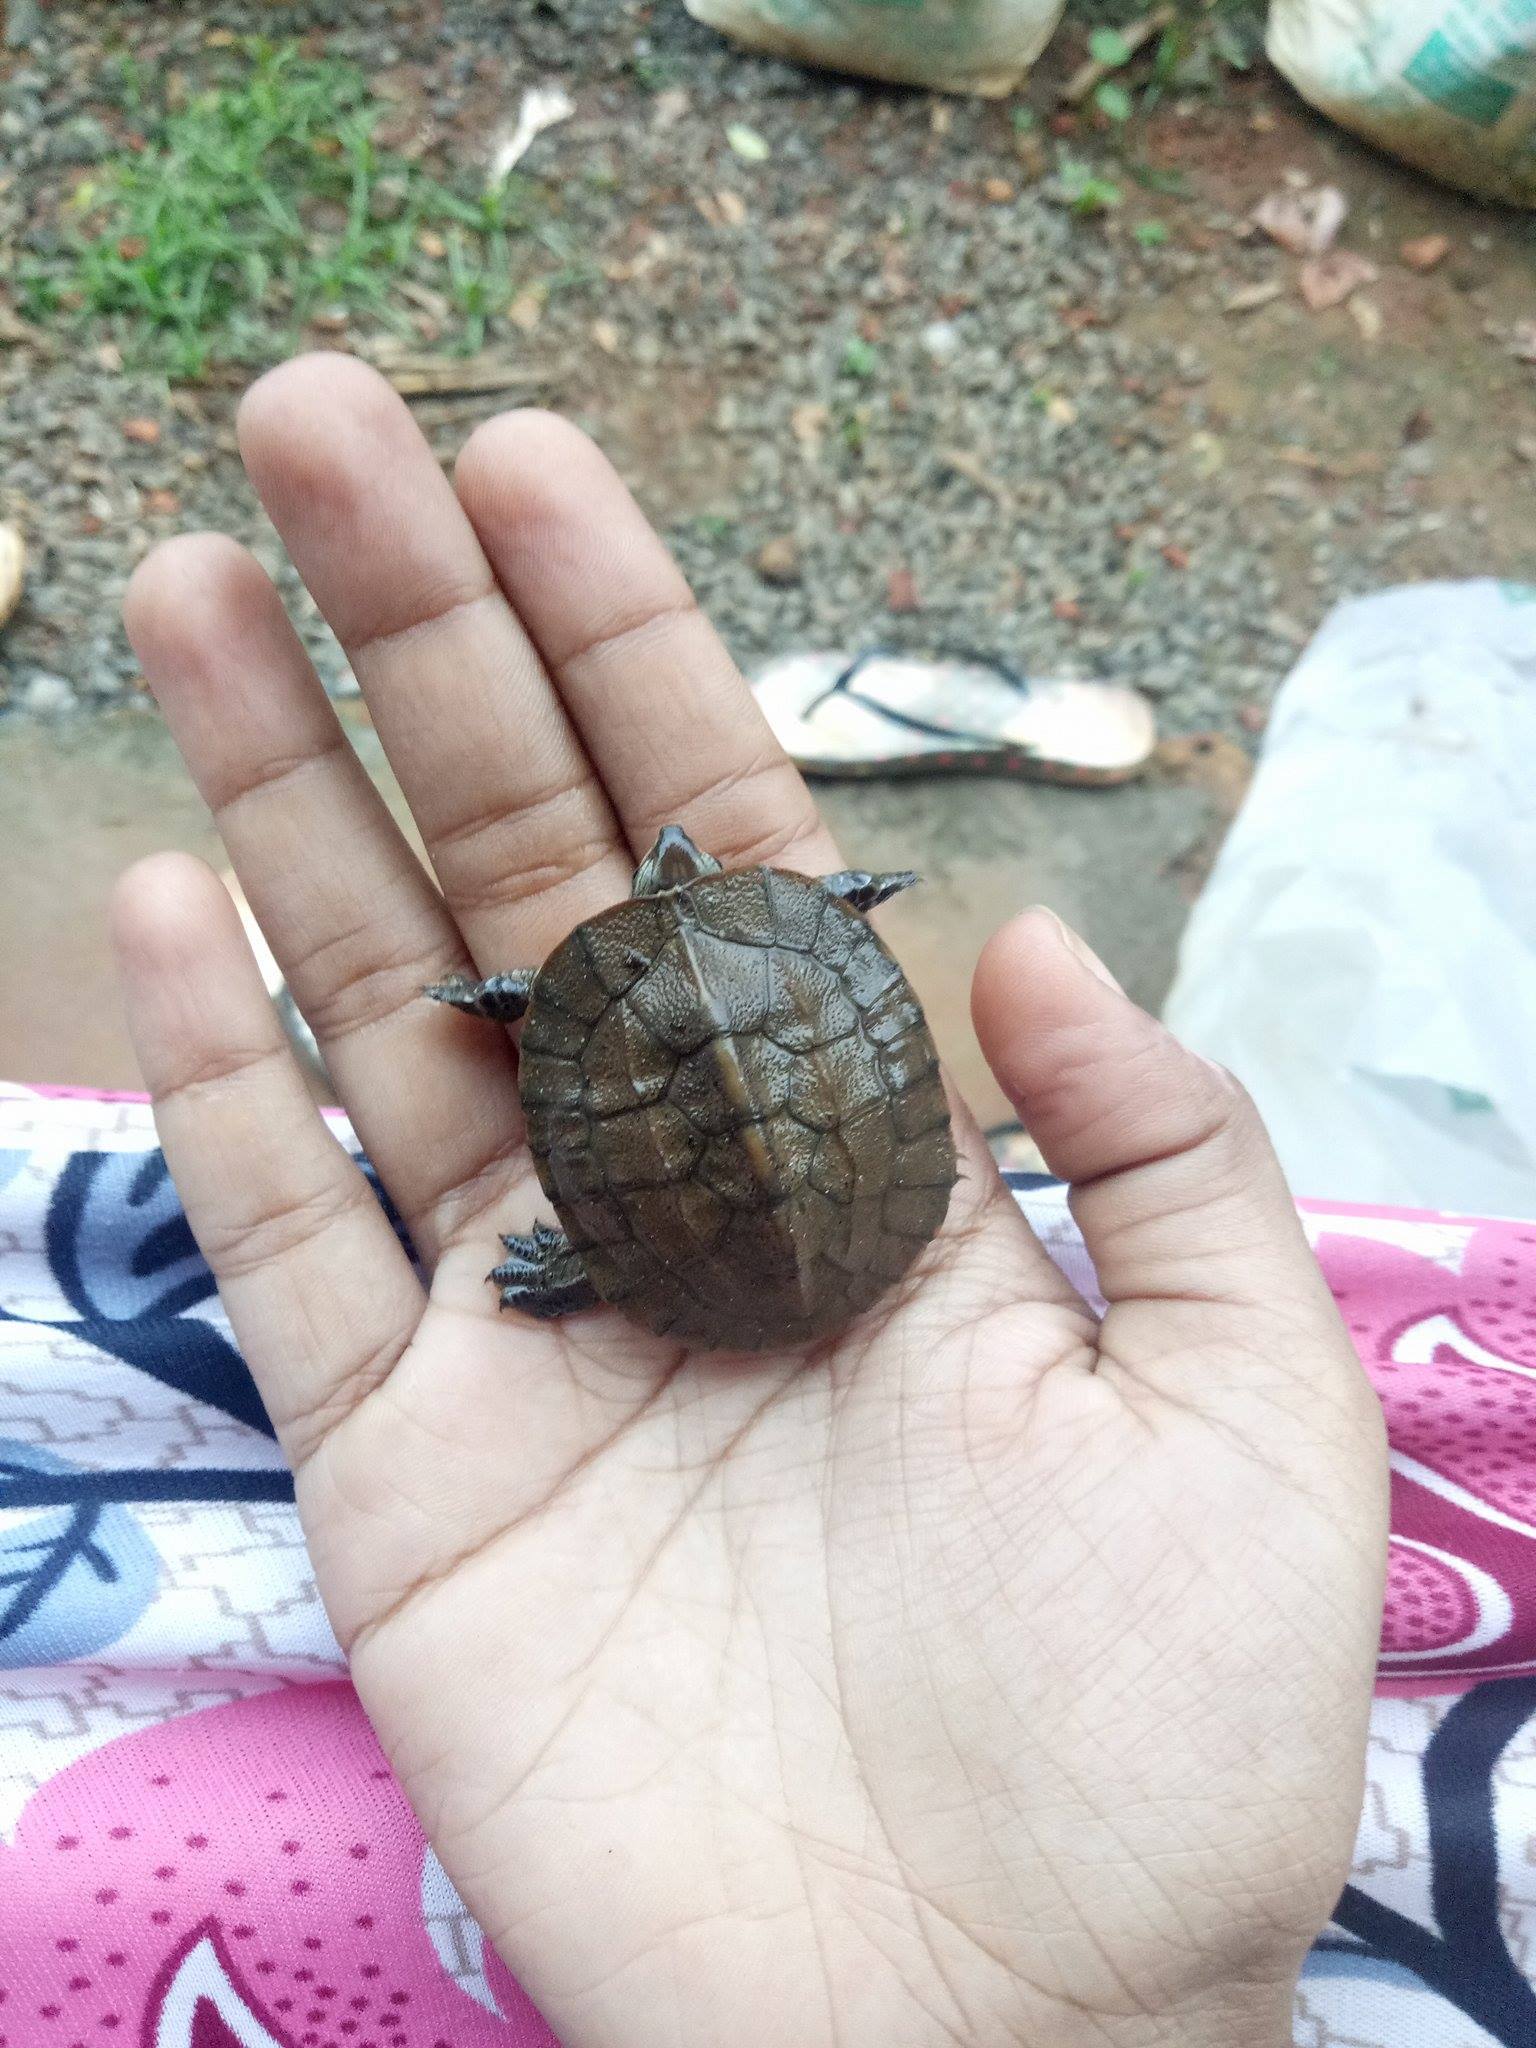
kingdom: Animalia
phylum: Chordata
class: Testudines
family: Geoemydidae
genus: Melanochelys
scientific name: Melanochelys trijuga
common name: Indian black turtle
